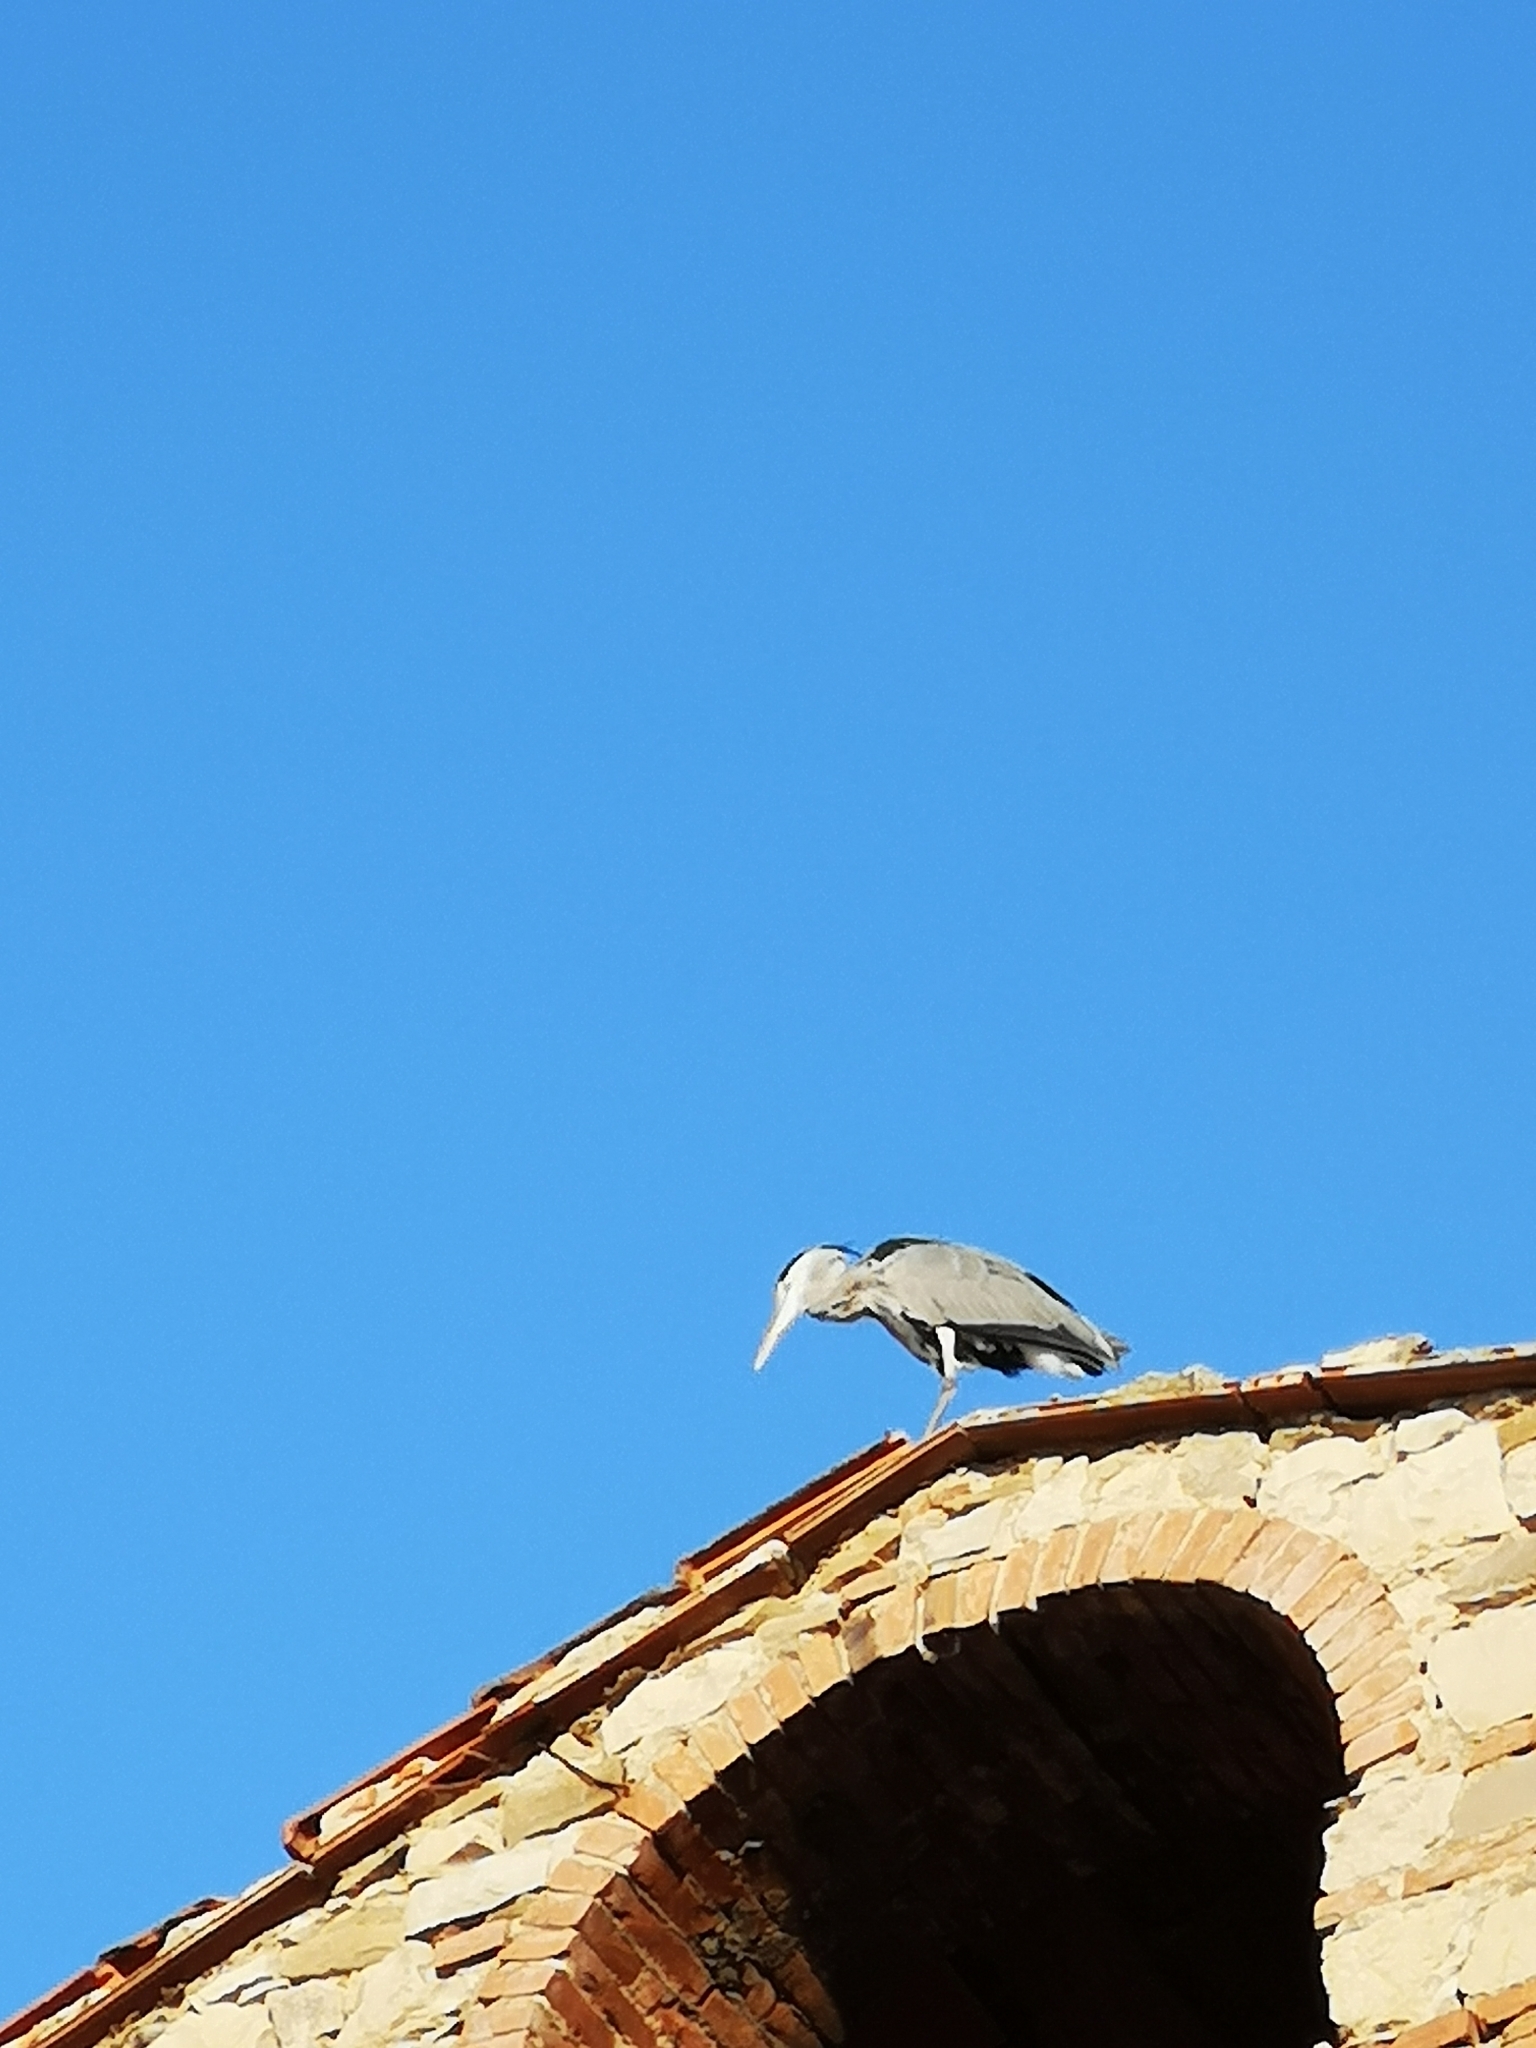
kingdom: Animalia
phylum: Chordata
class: Aves
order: Pelecaniformes
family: Ardeidae
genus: Ardea
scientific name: Ardea cinerea
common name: Grey heron
